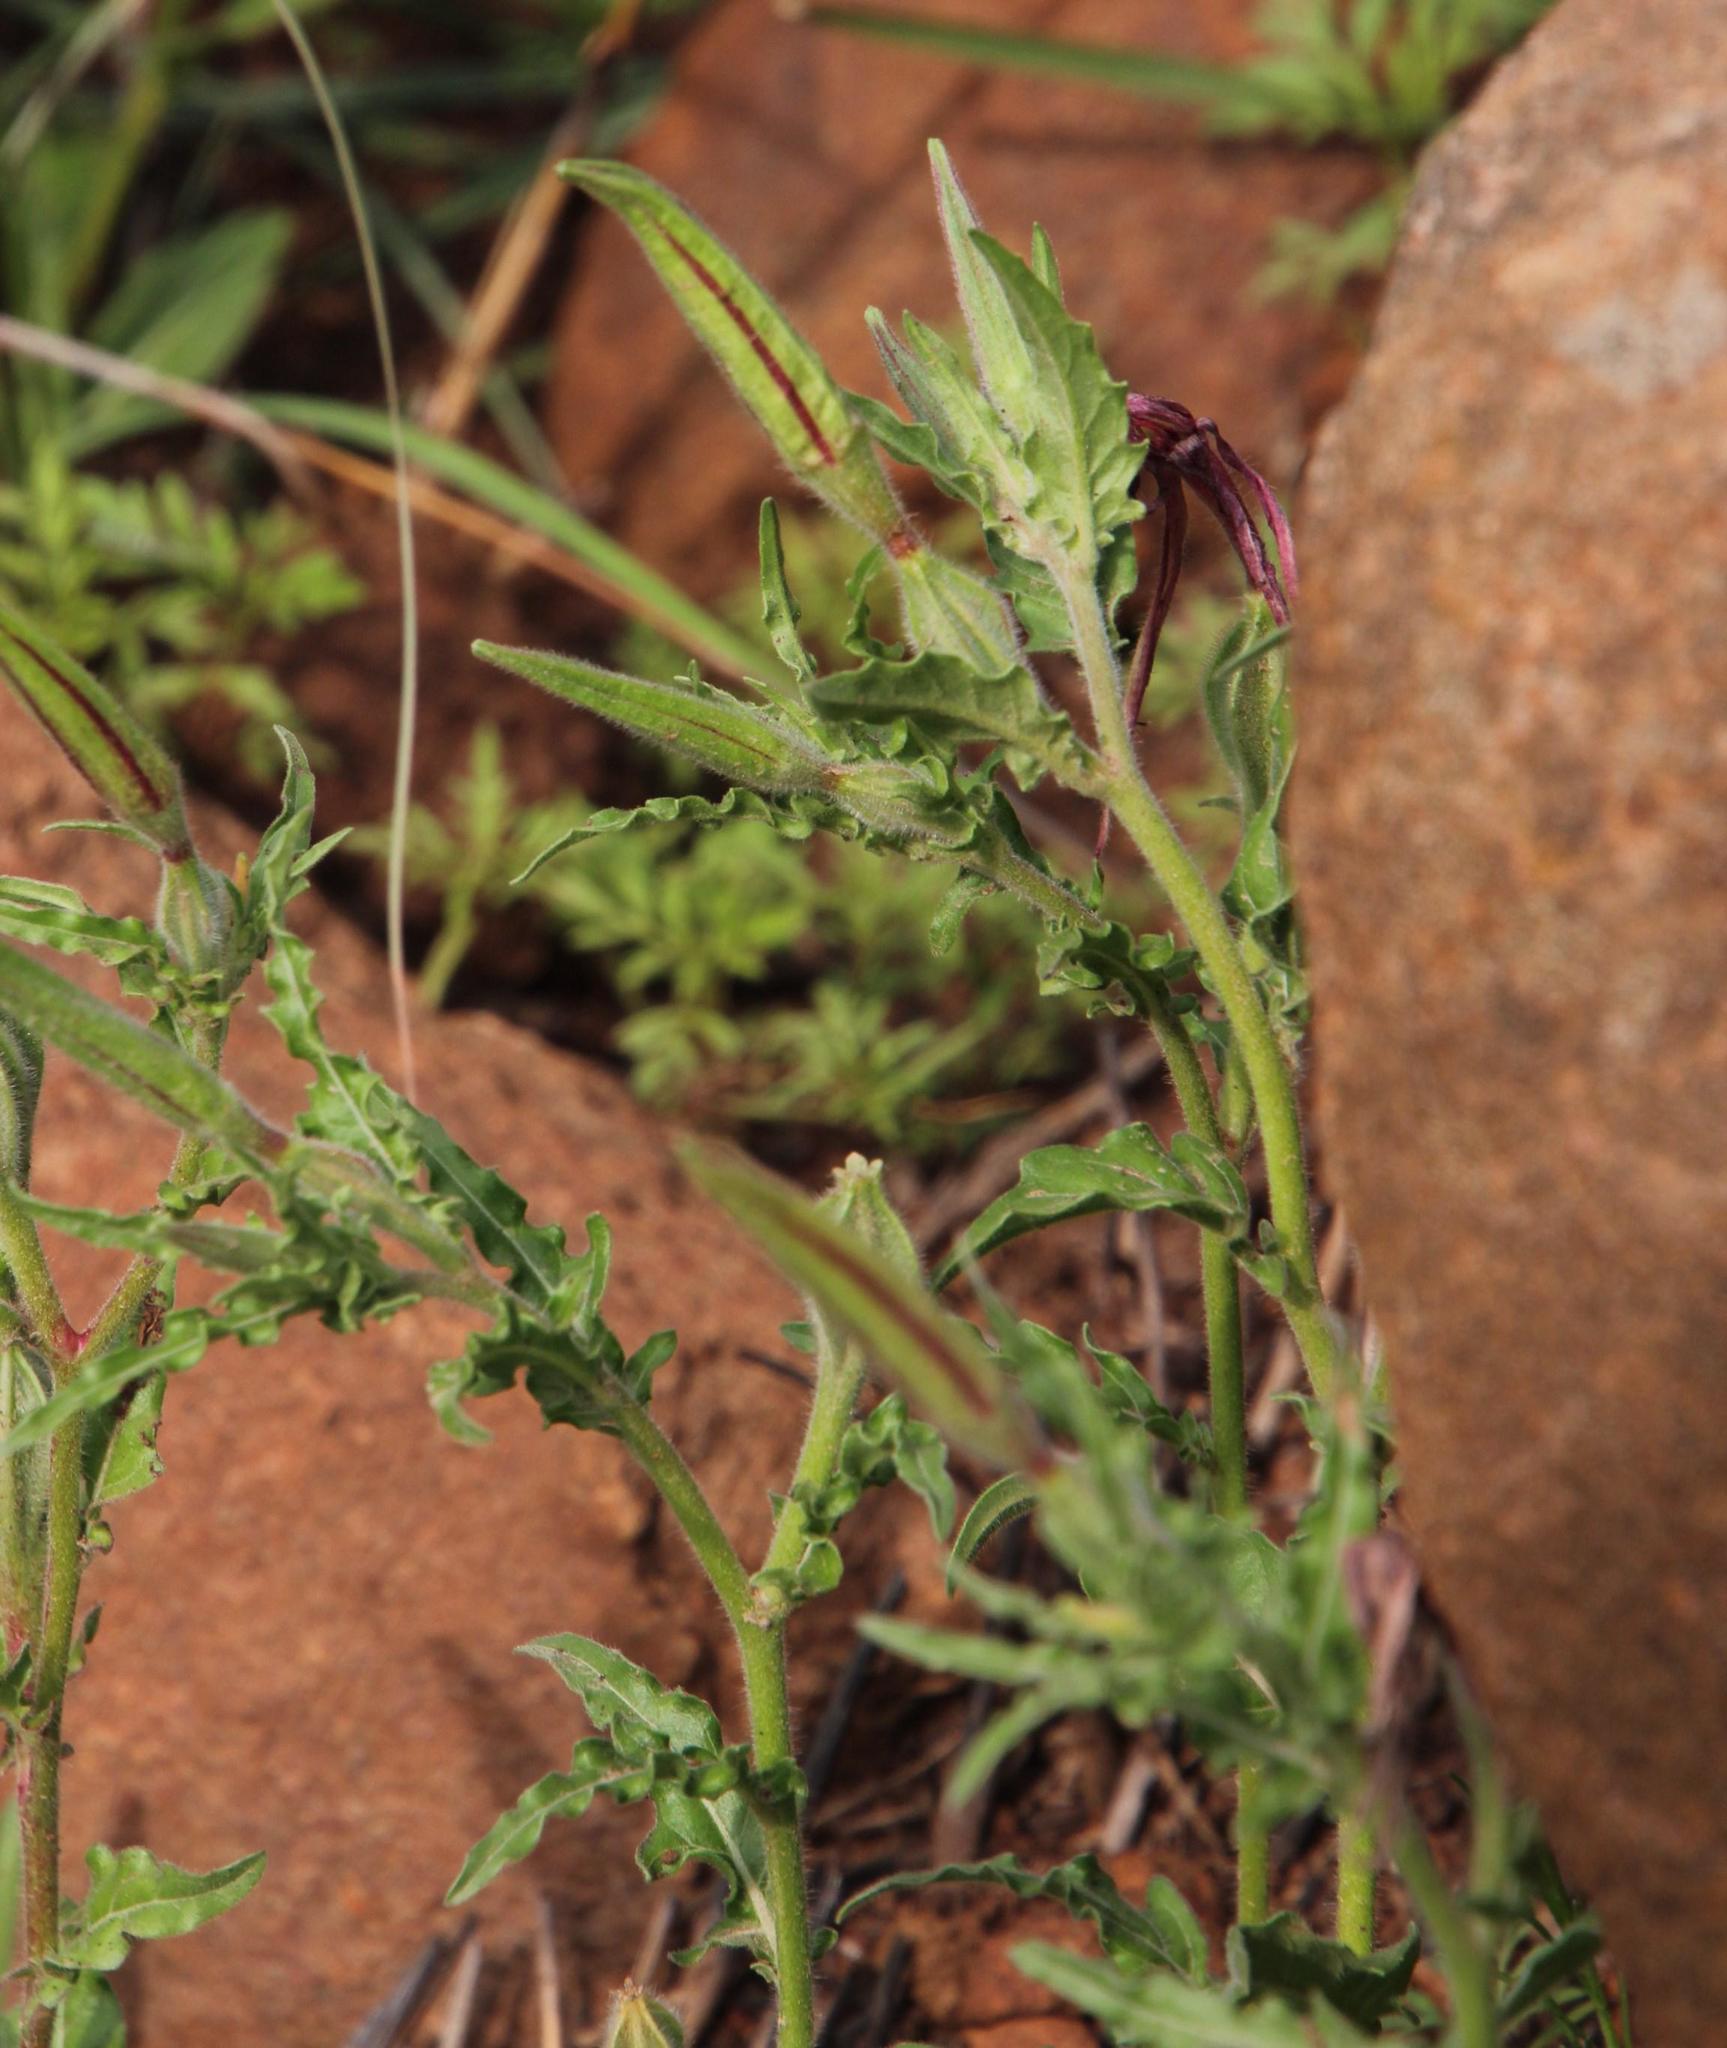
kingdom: Plantae
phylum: Tracheophyta
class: Magnoliopsida
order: Myrtales
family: Onagraceae
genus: Oenothera
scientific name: Oenothera rosea
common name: Rosy evening-primrose
